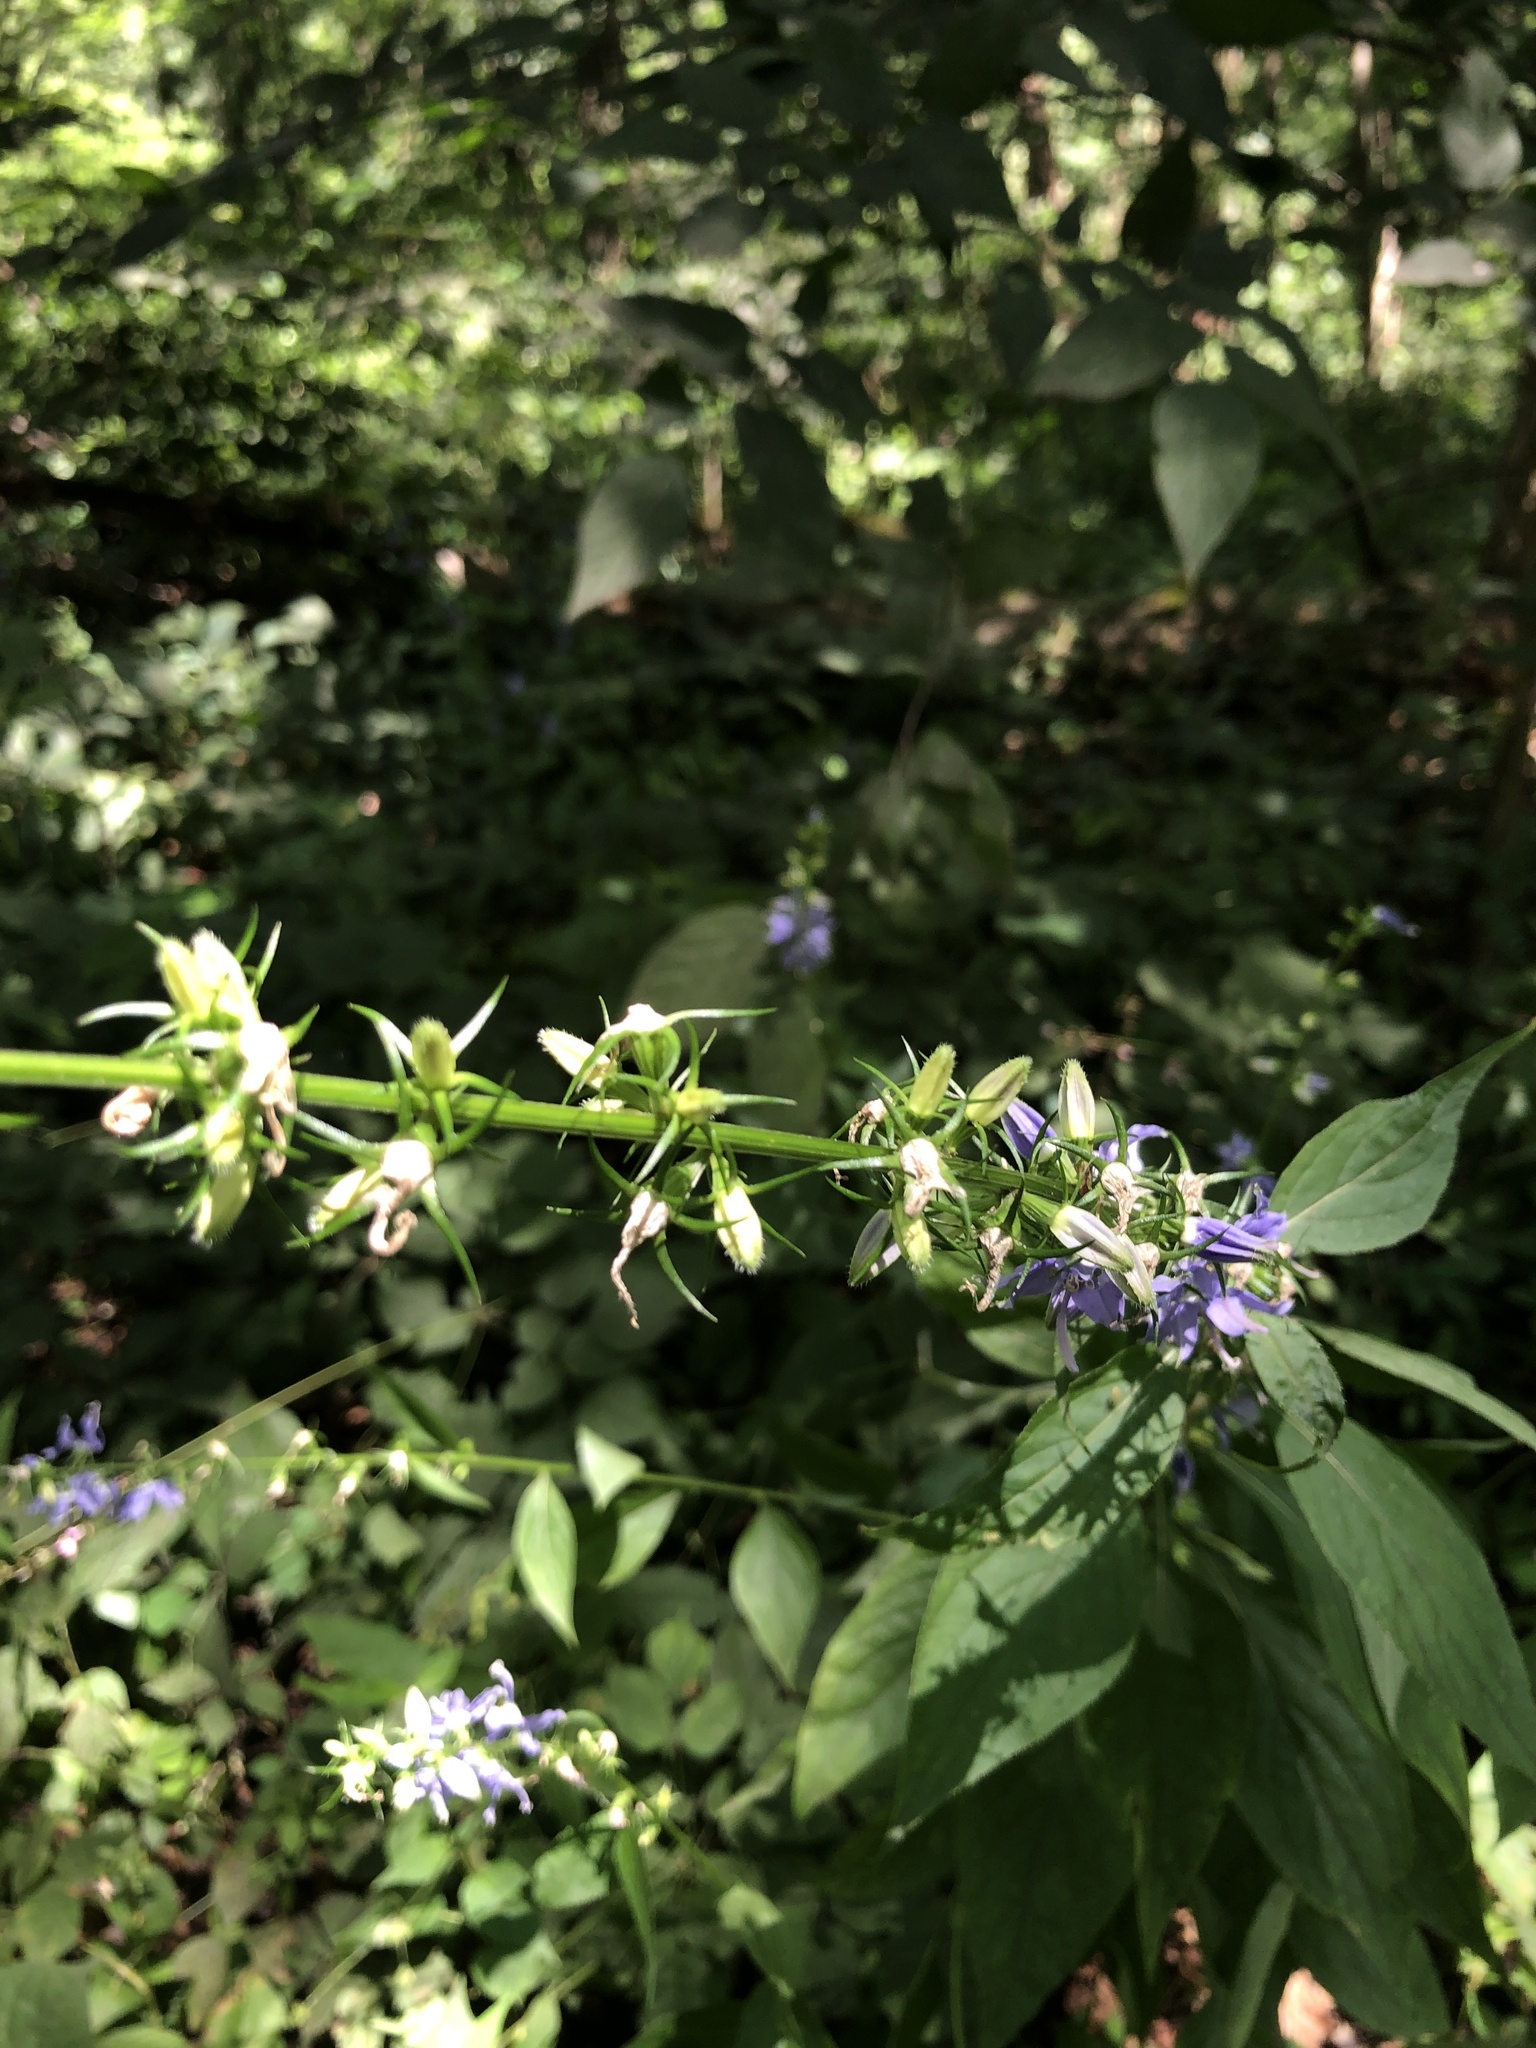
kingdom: Plantae
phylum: Tracheophyta
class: Magnoliopsida
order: Asterales
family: Campanulaceae
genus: Campanulastrum
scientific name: Campanulastrum americanum
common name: American bellflower
